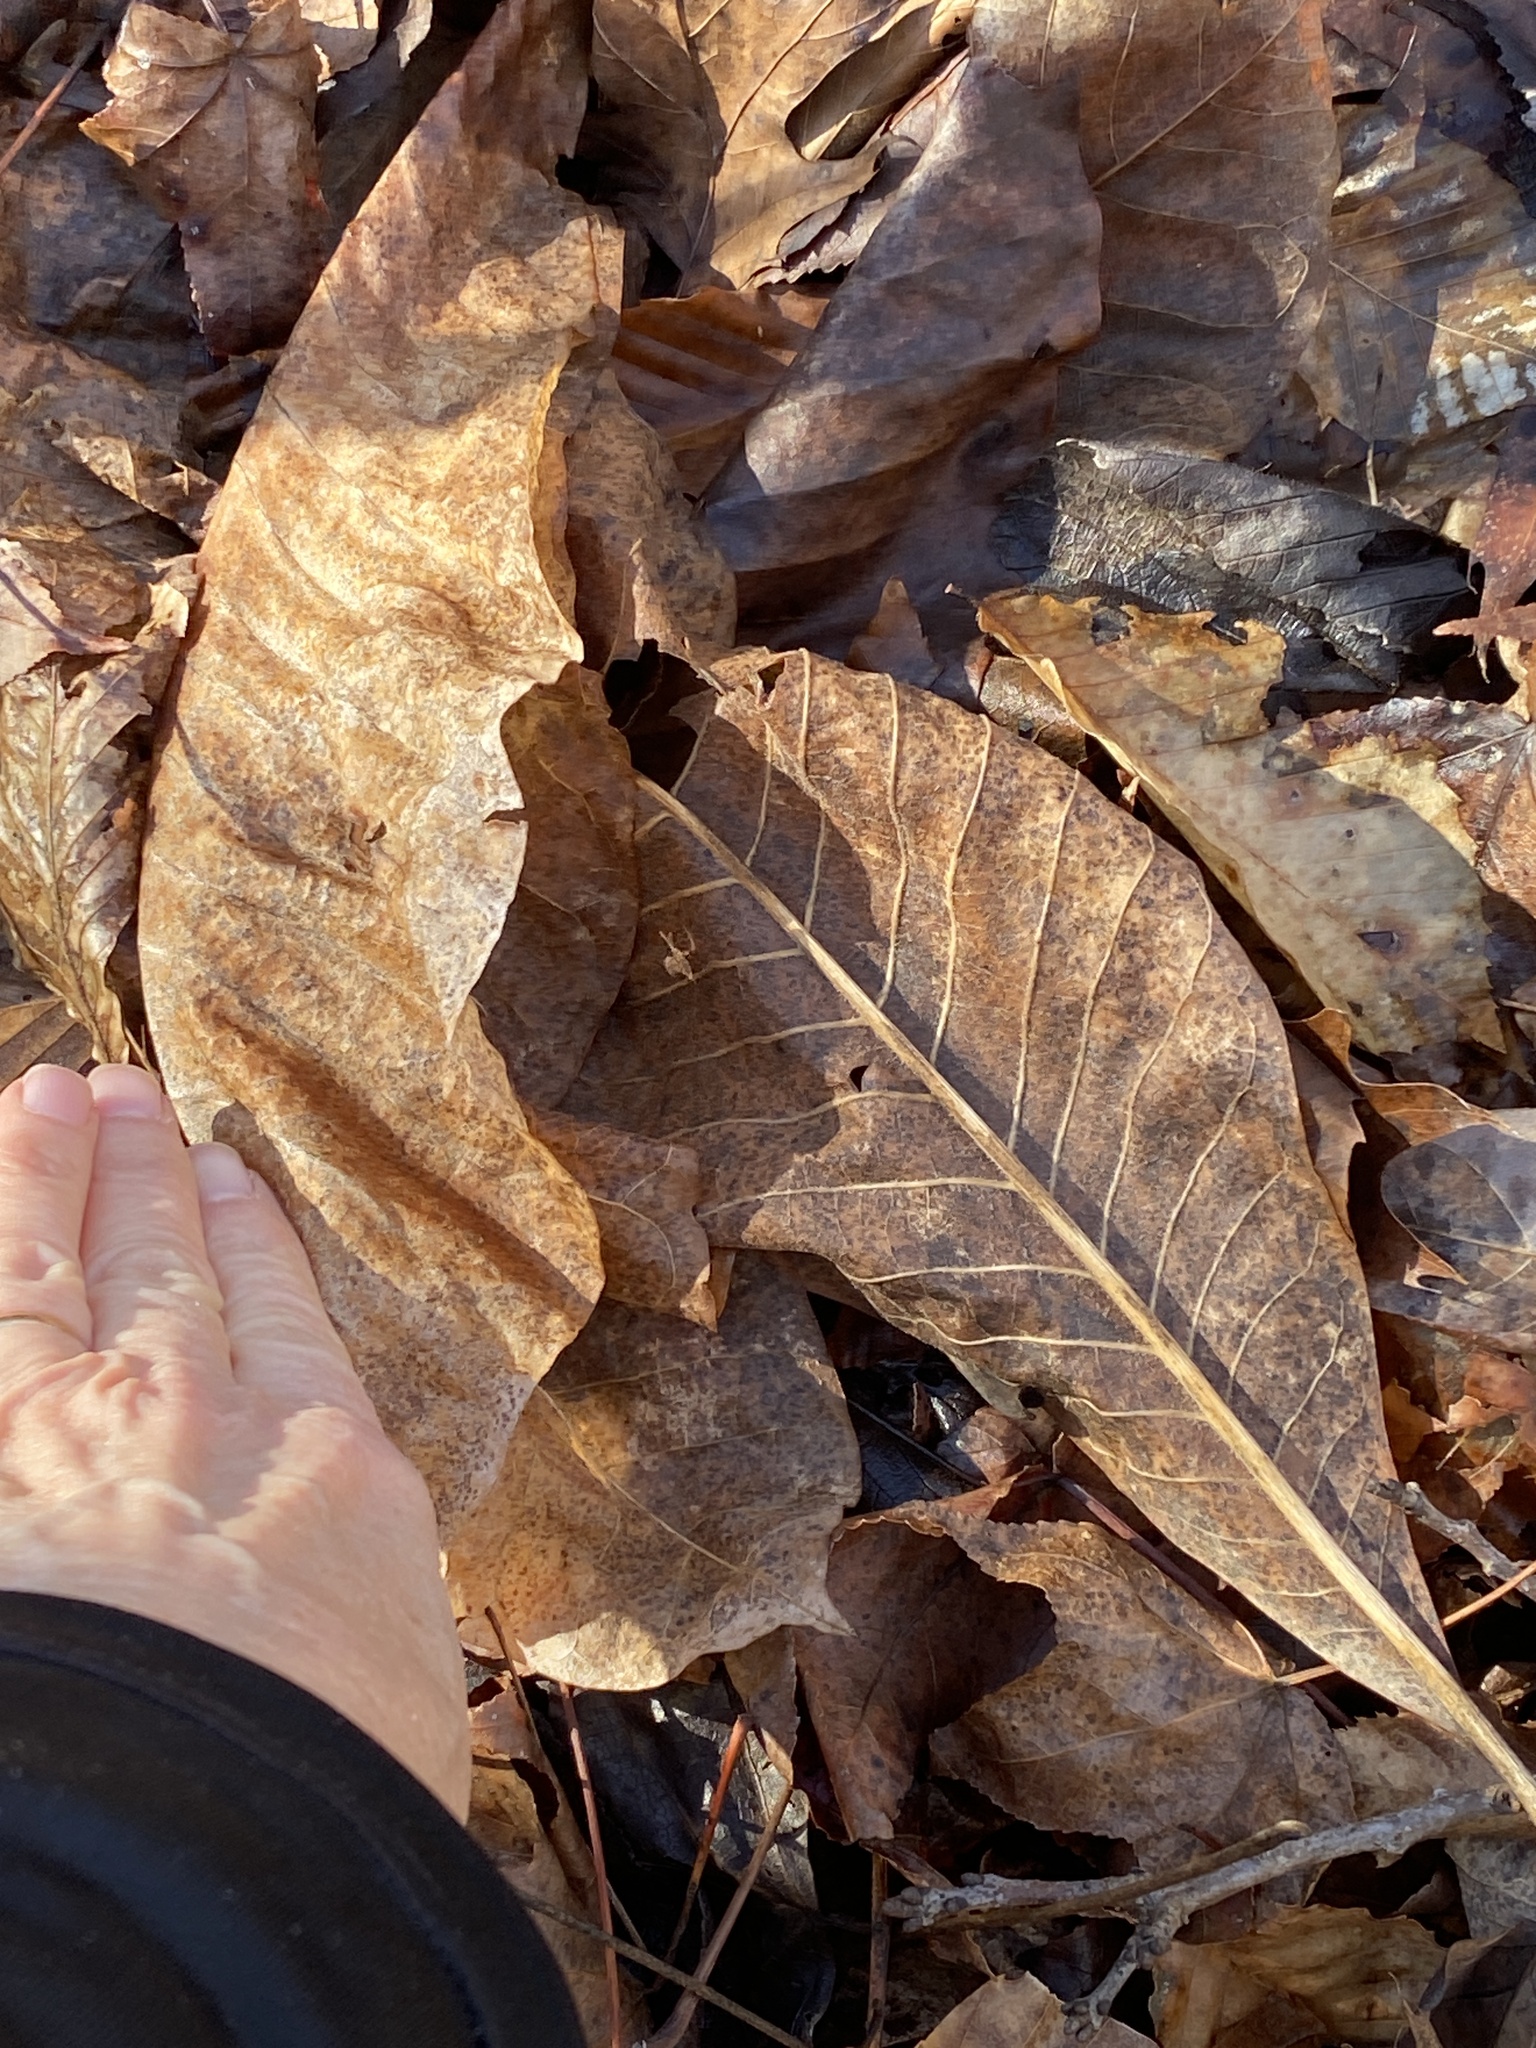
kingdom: Plantae
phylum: Tracheophyta
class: Magnoliopsida
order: Magnoliales
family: Magnoliaceae
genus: Magnolia
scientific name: Magnolia tripetala
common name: Umbrella magnolia
